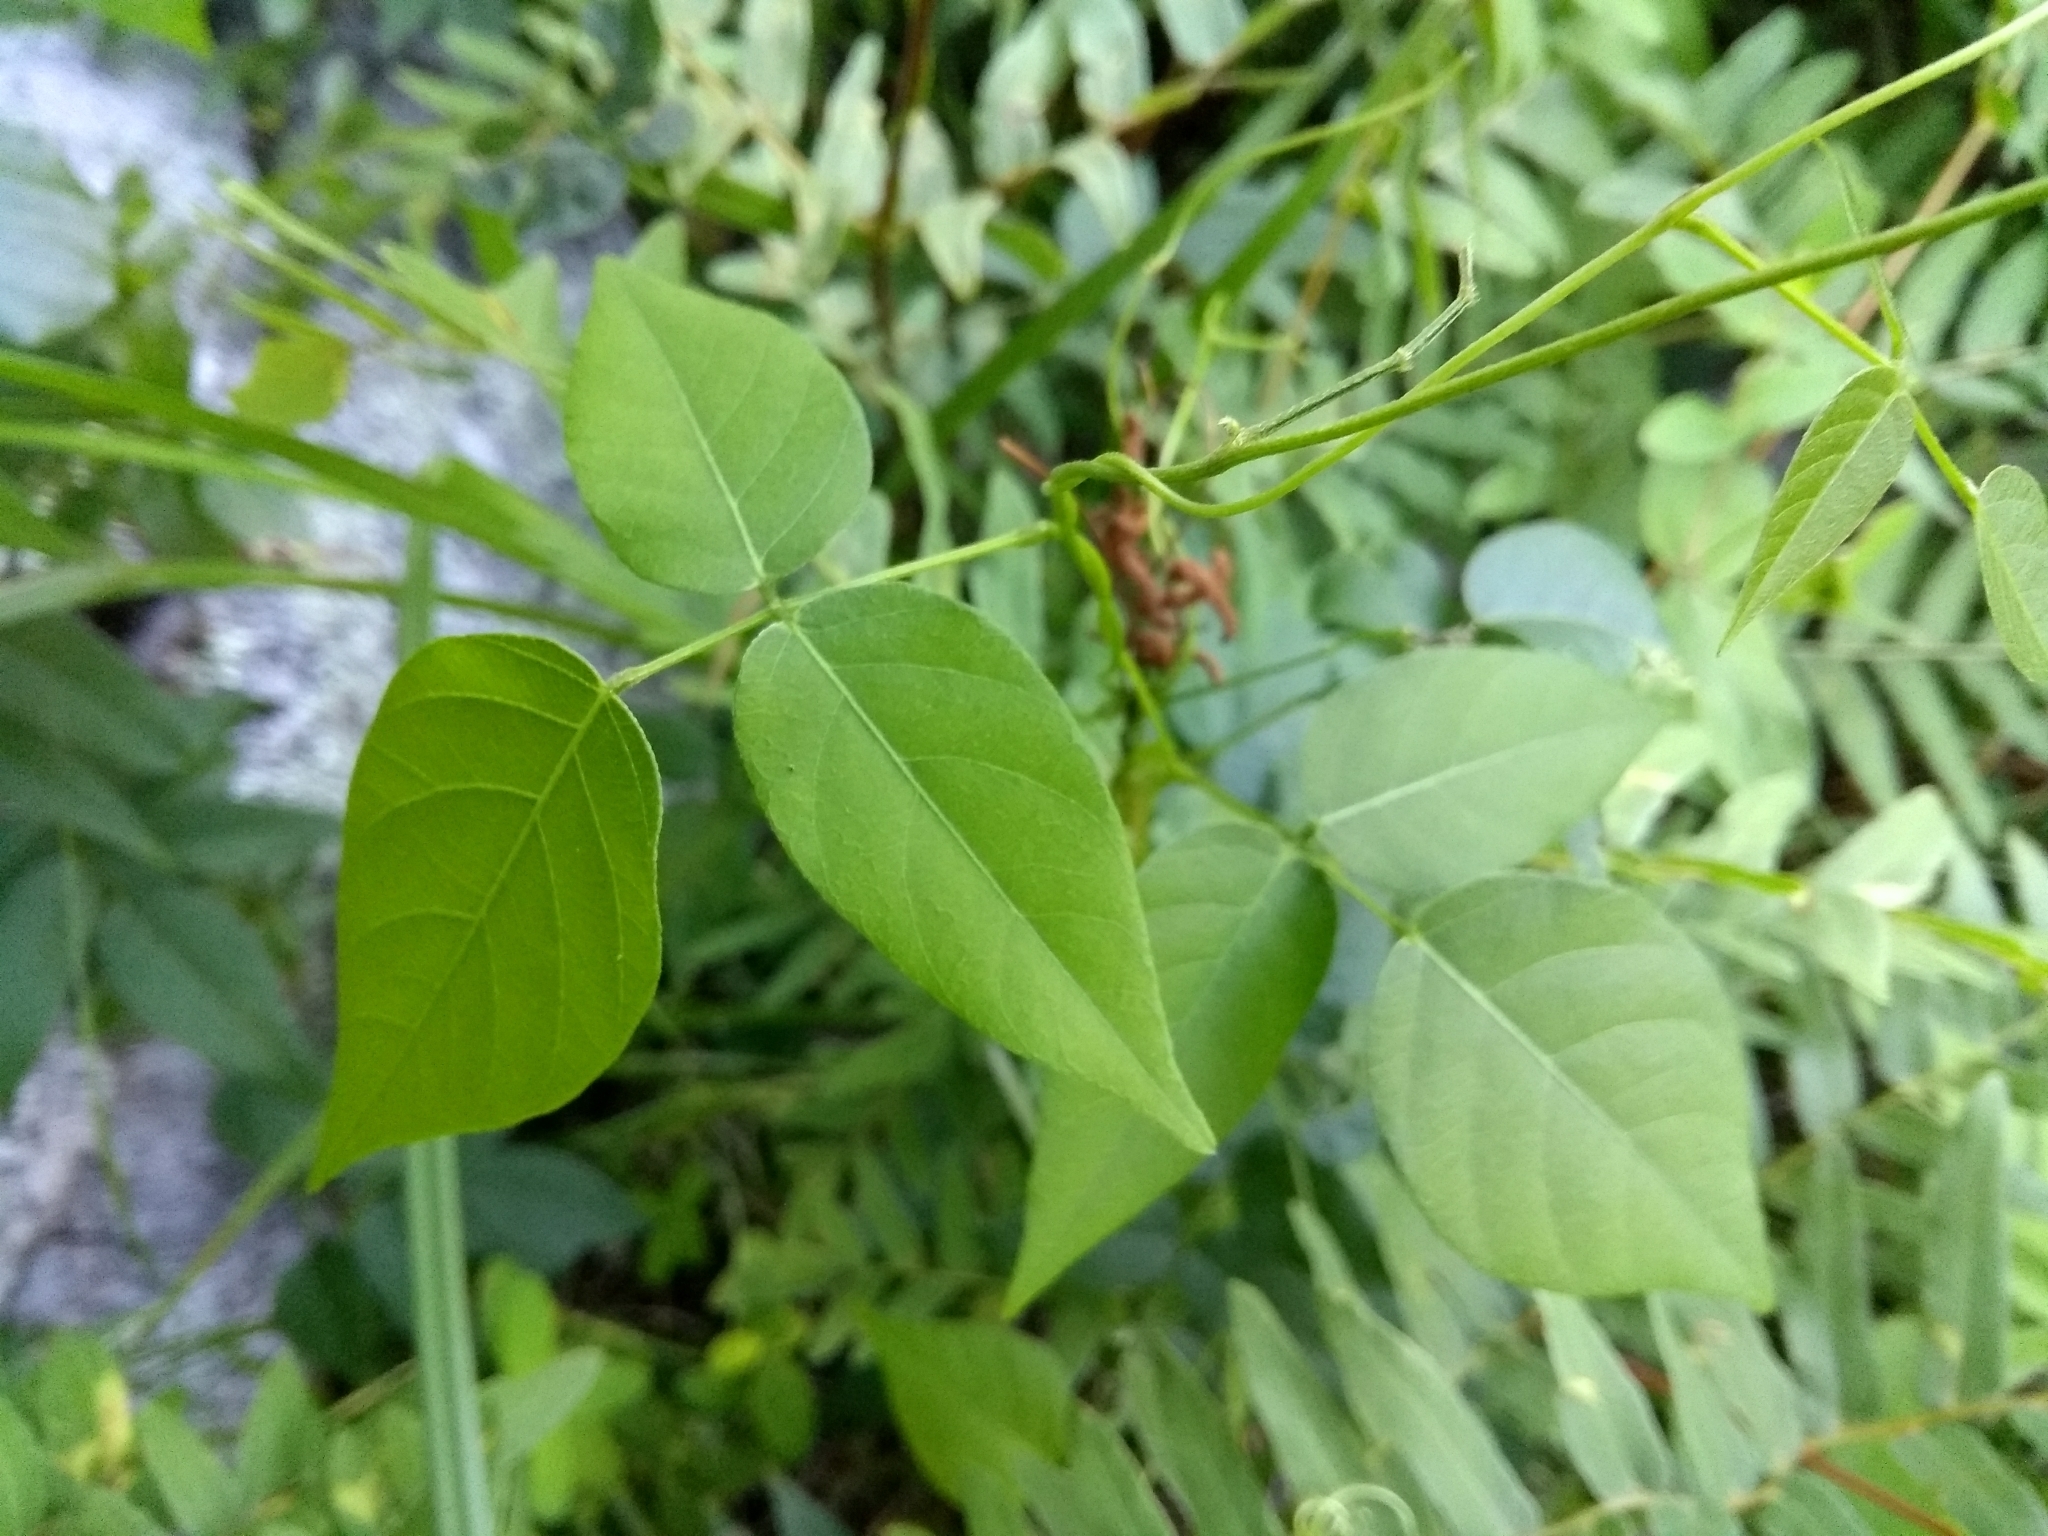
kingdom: Plantae
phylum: Tracheophyta
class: Magnoliopsida
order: Fabales
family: Fabaceae
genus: Apios
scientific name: Apios americana
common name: American potato-bean
